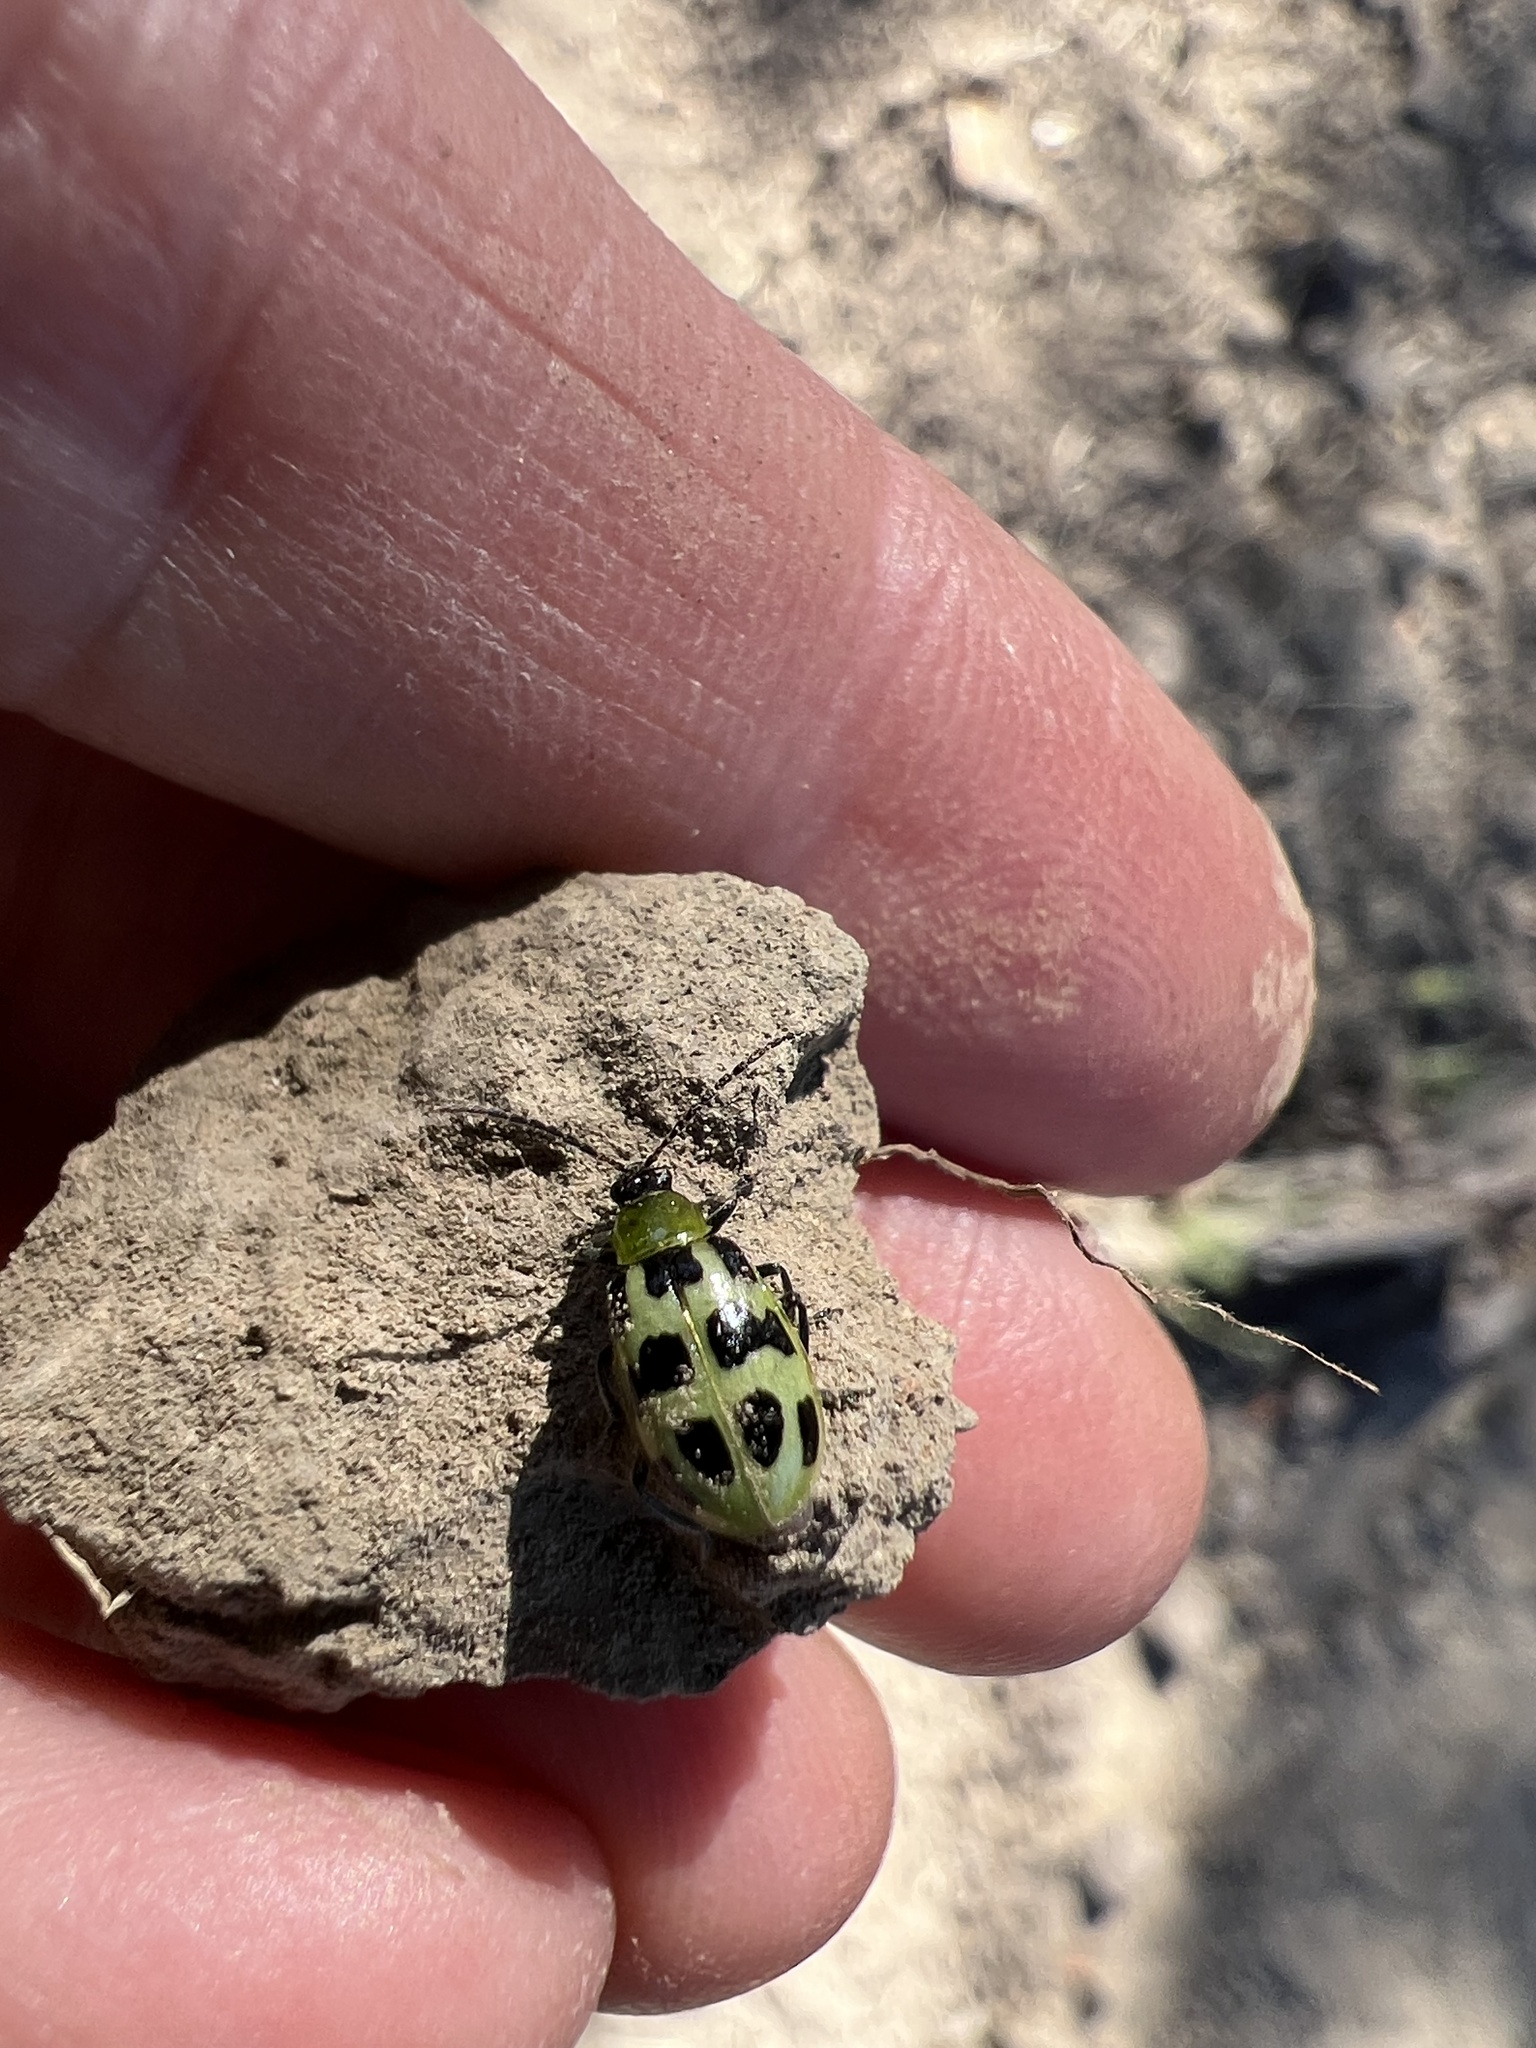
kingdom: Animalia
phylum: Arthropoda
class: Insecta
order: Coleoptera
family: Chrysomelidae
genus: Diabrotica
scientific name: Diabrotica undecimpunctata
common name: Spotted cucumber beetle
